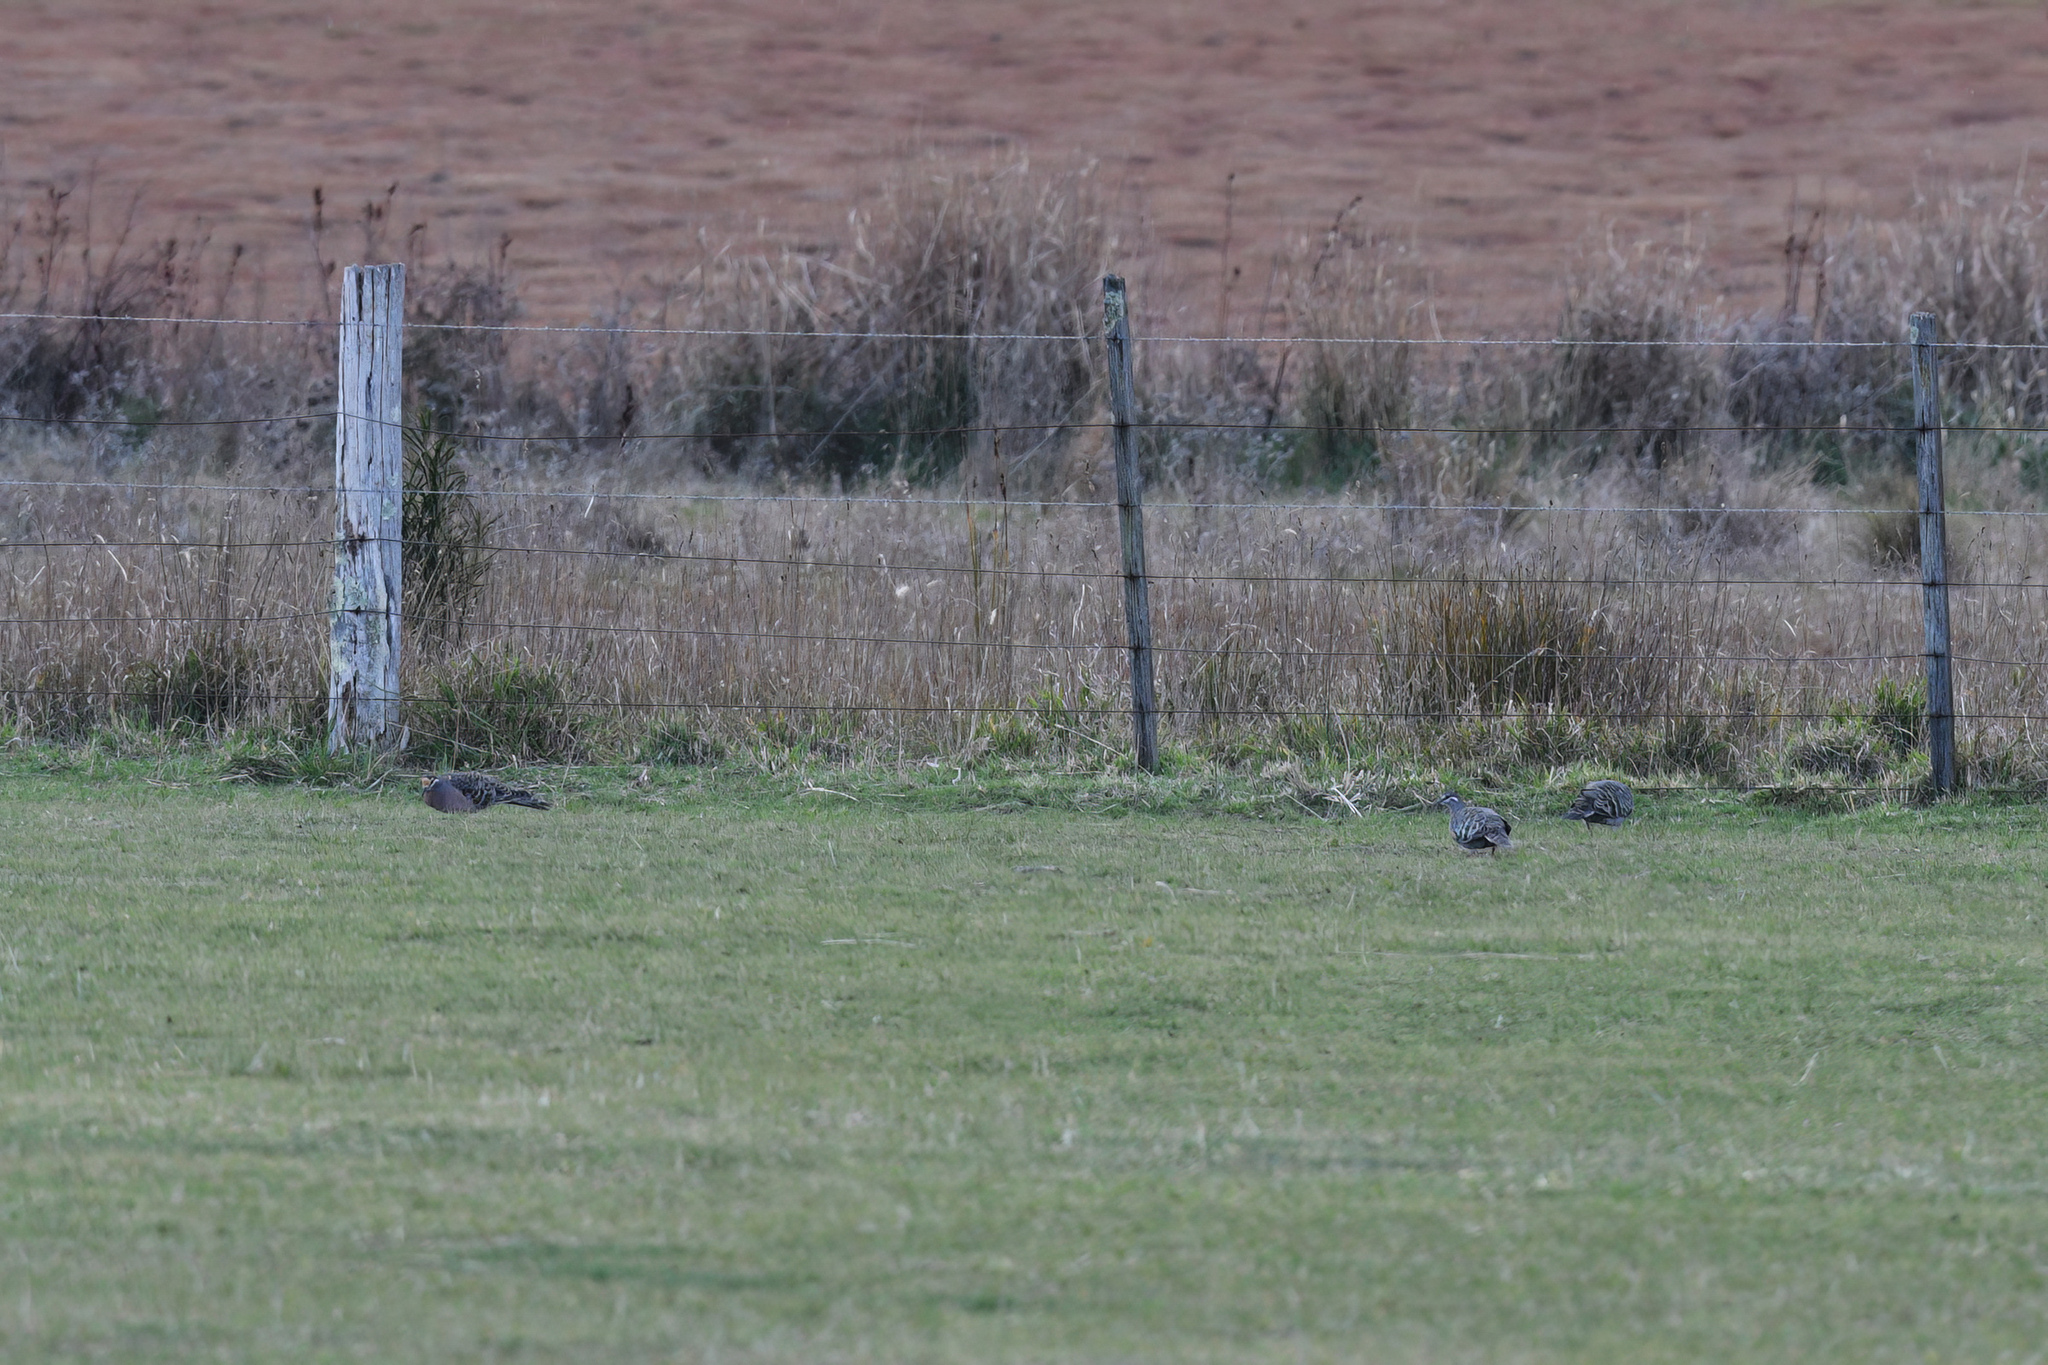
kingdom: Animalia
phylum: Chordata
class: Aves
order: Columbiformes
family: Columbidae
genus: Phaps
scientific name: Phaps chalcoptera
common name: Common bronzewing
